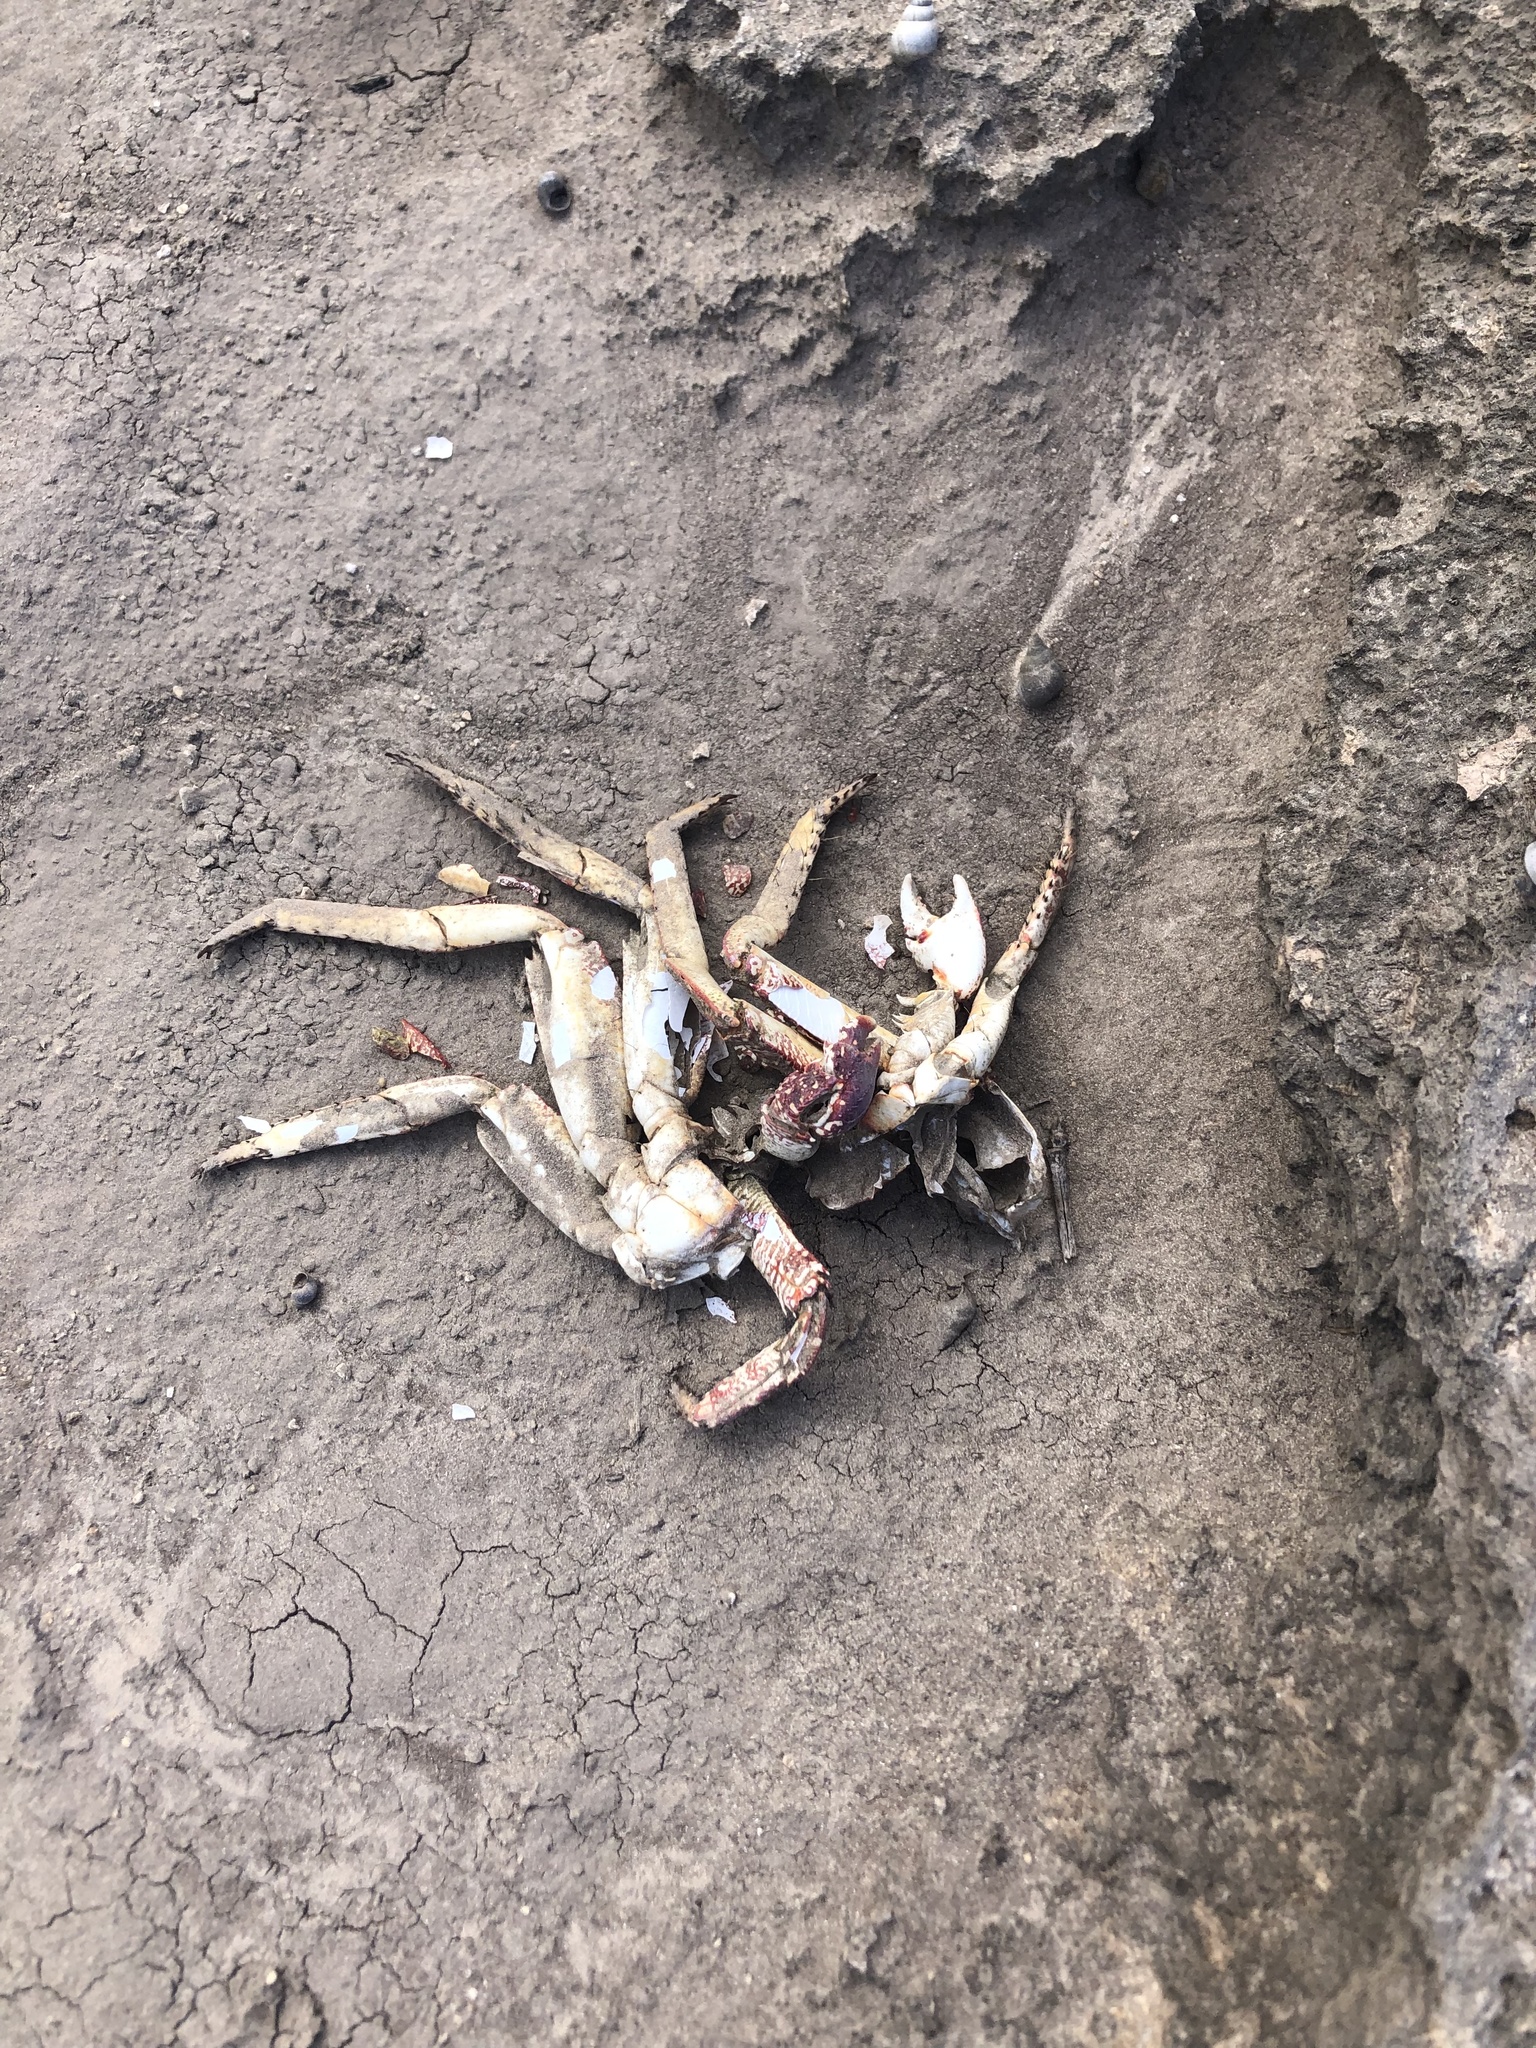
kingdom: Animalia
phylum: Arthropoda
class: Malacostraca
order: Decapoda
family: Grapsidae
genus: Grapsus
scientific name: Grapsus tenuicrustatus
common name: Natal lightfoot crab
